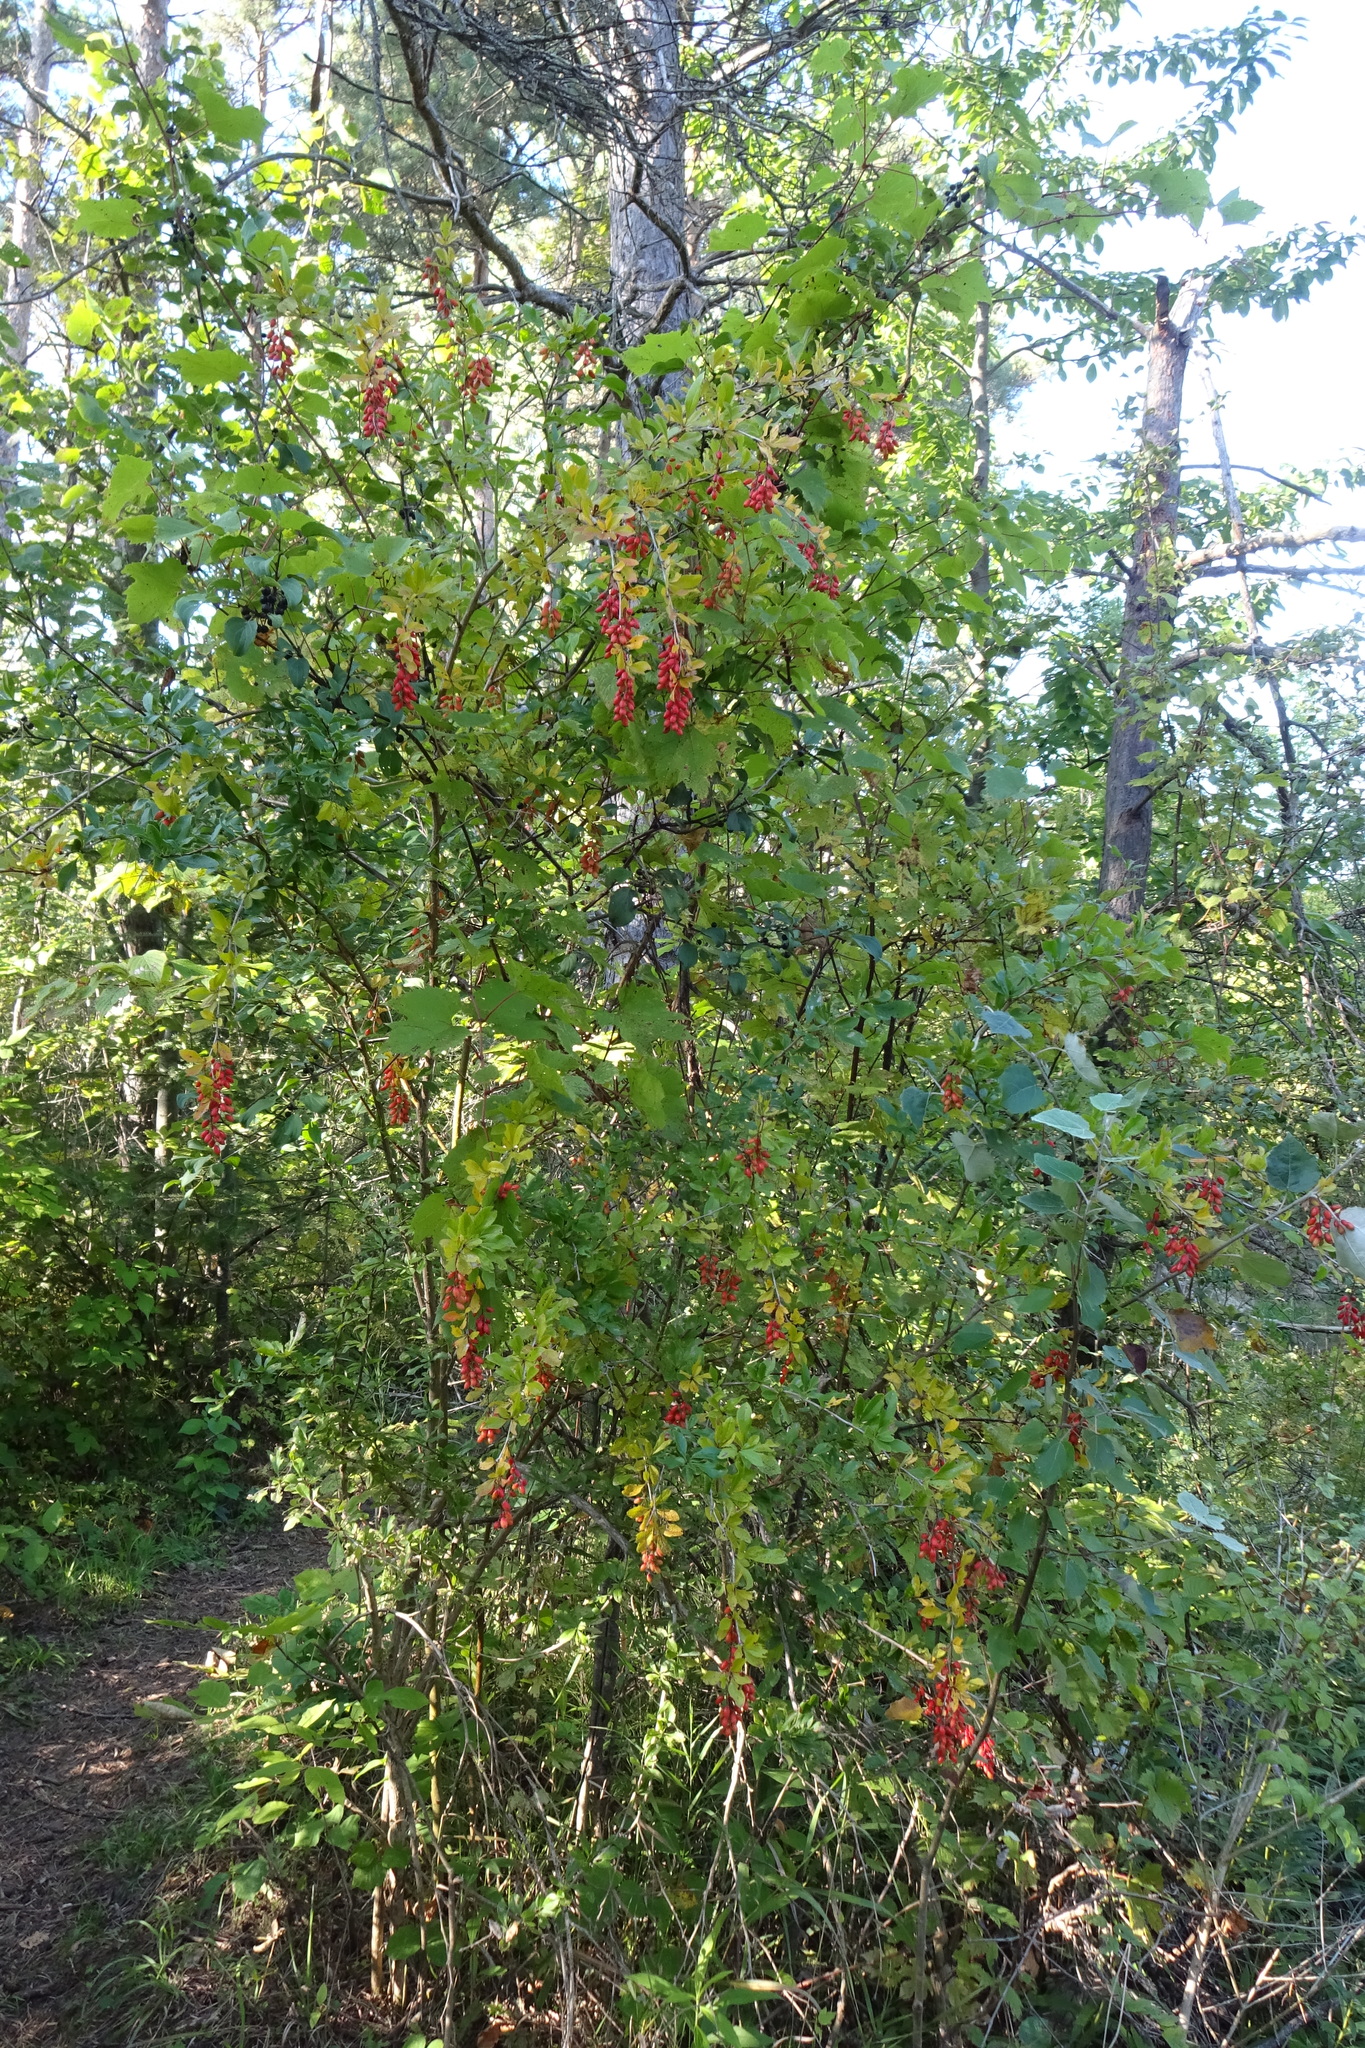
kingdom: Plantae
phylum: Tracheophyta
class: Magnoliopsida
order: Ranunculales
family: Berberidaceae
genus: Berberis
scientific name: Berberis vulgaris
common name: Barberry
